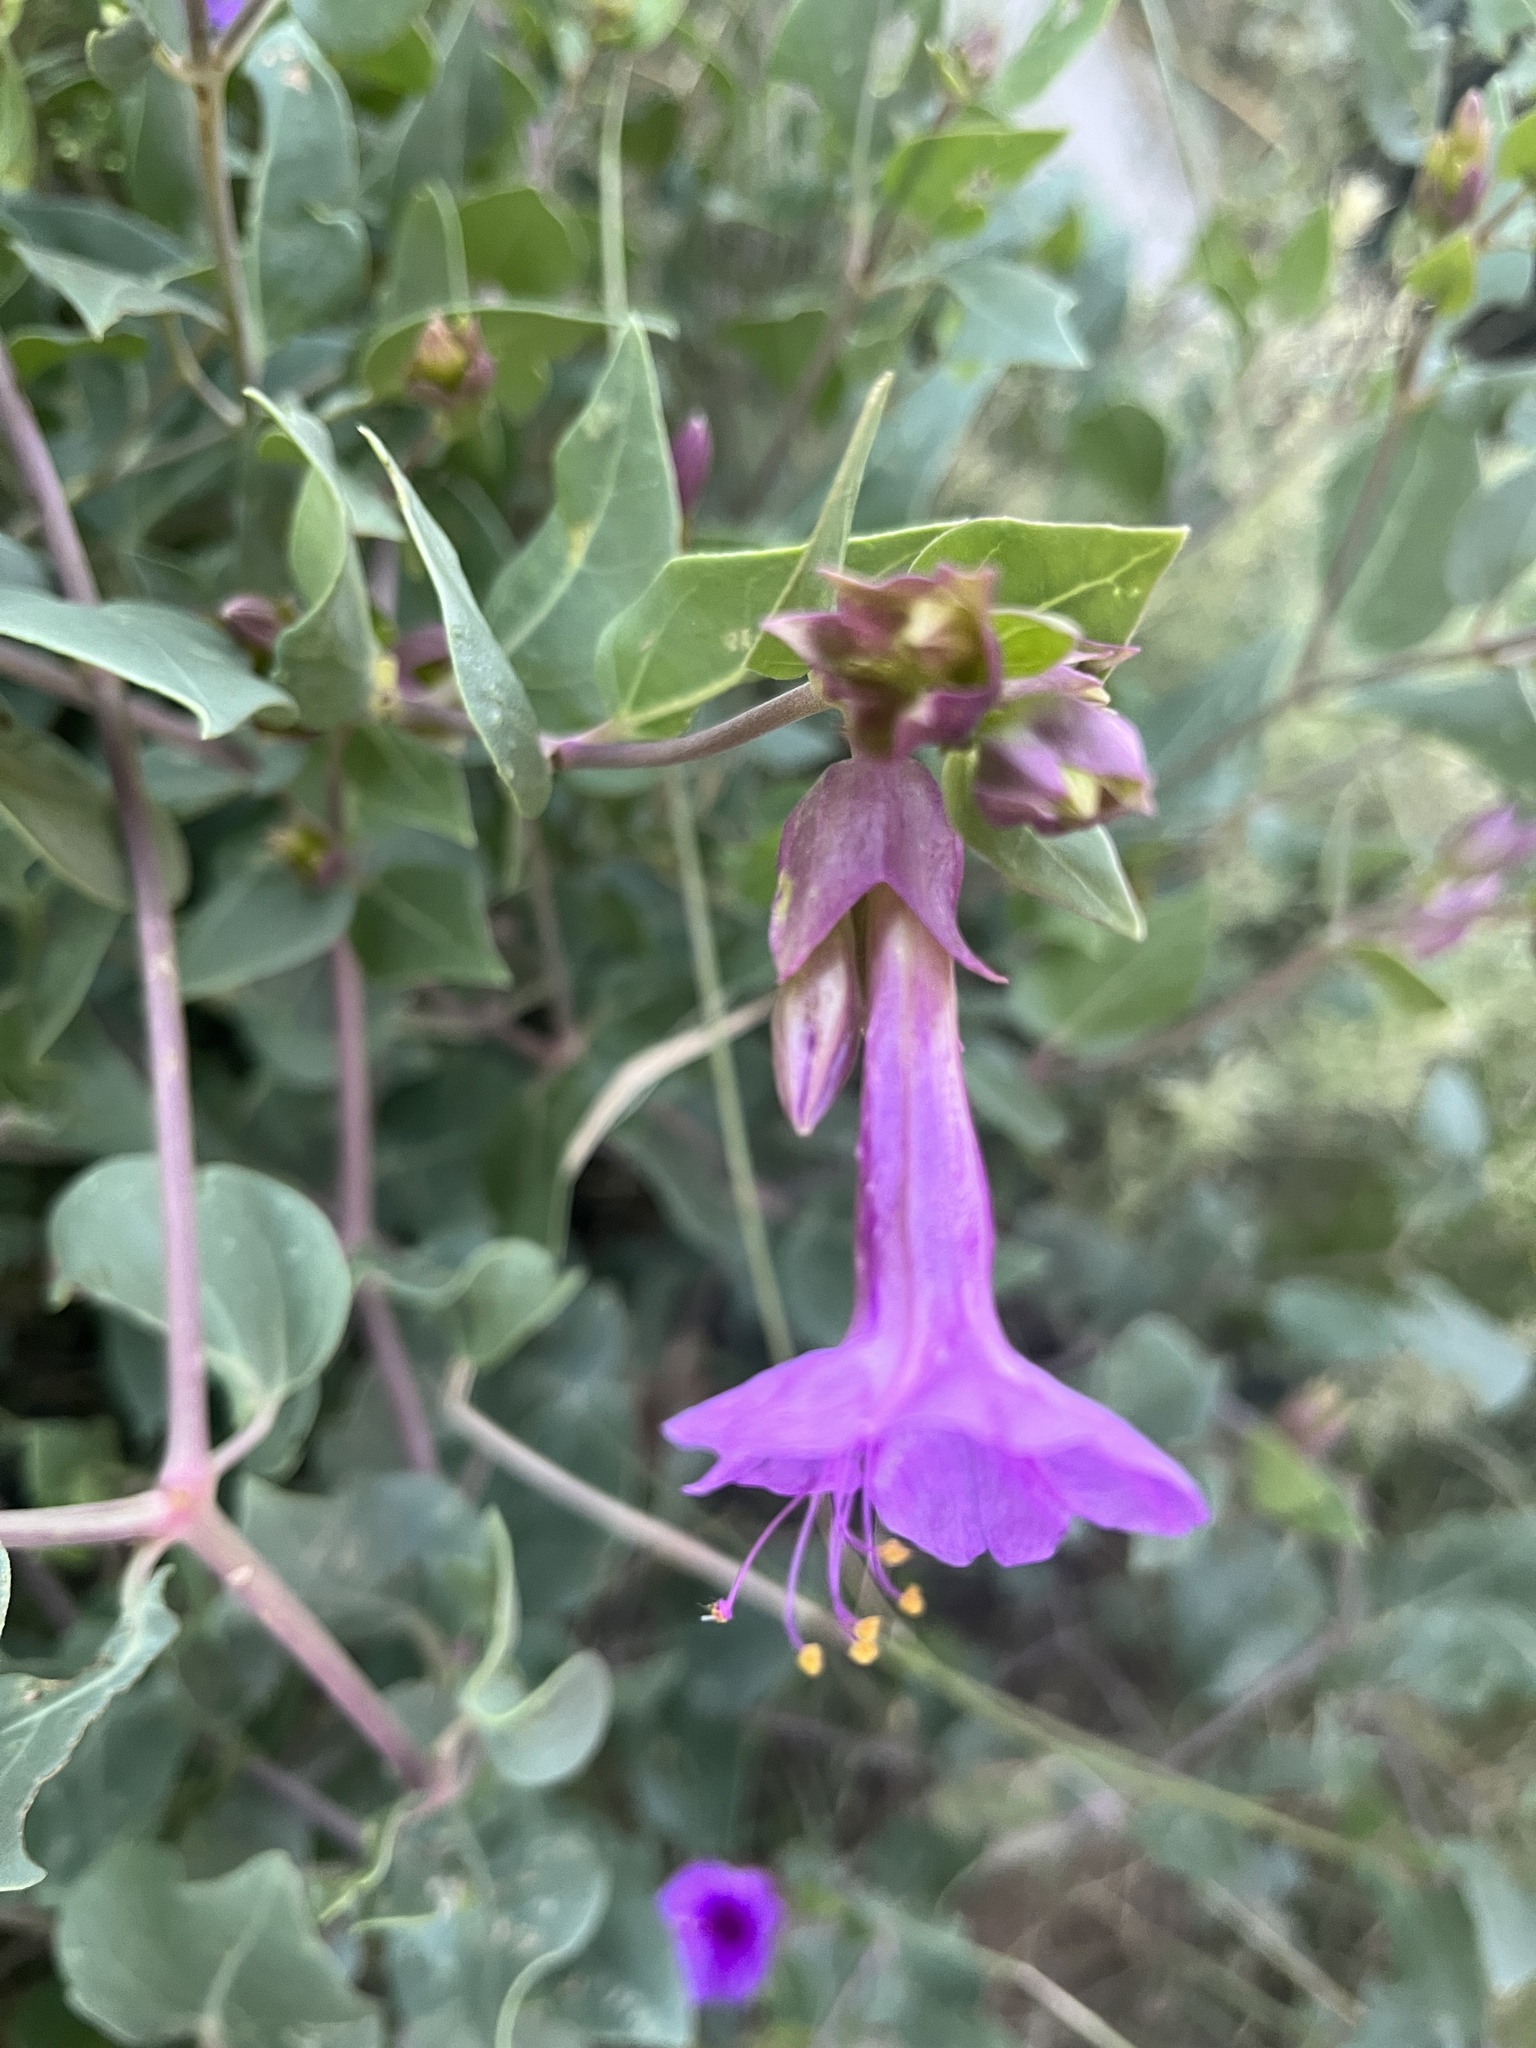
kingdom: Plantae
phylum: Tracheophyta
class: Magnoliopsida
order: Caryophyllales
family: Nyctaginaceae
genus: Mirabilis
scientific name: Mirabilis multiflora
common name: Froebel's four-o'clock
